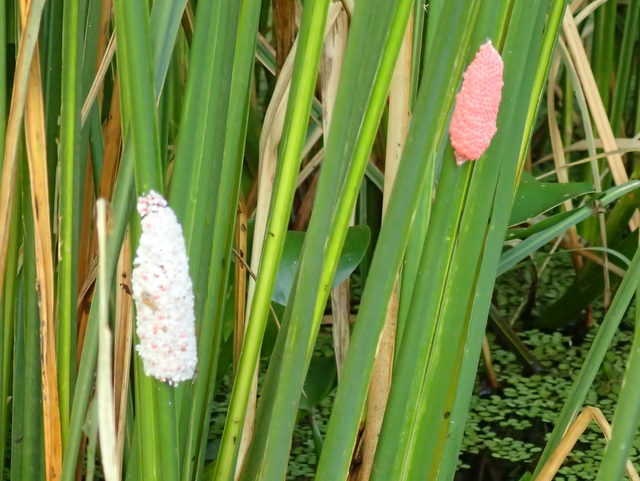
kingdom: Animalia
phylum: Mollusca
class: Gastropoda
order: Architaenioglossa
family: Ampullariidae
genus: Pomacea
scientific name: Pomacea maculata
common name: Giant applesnail
